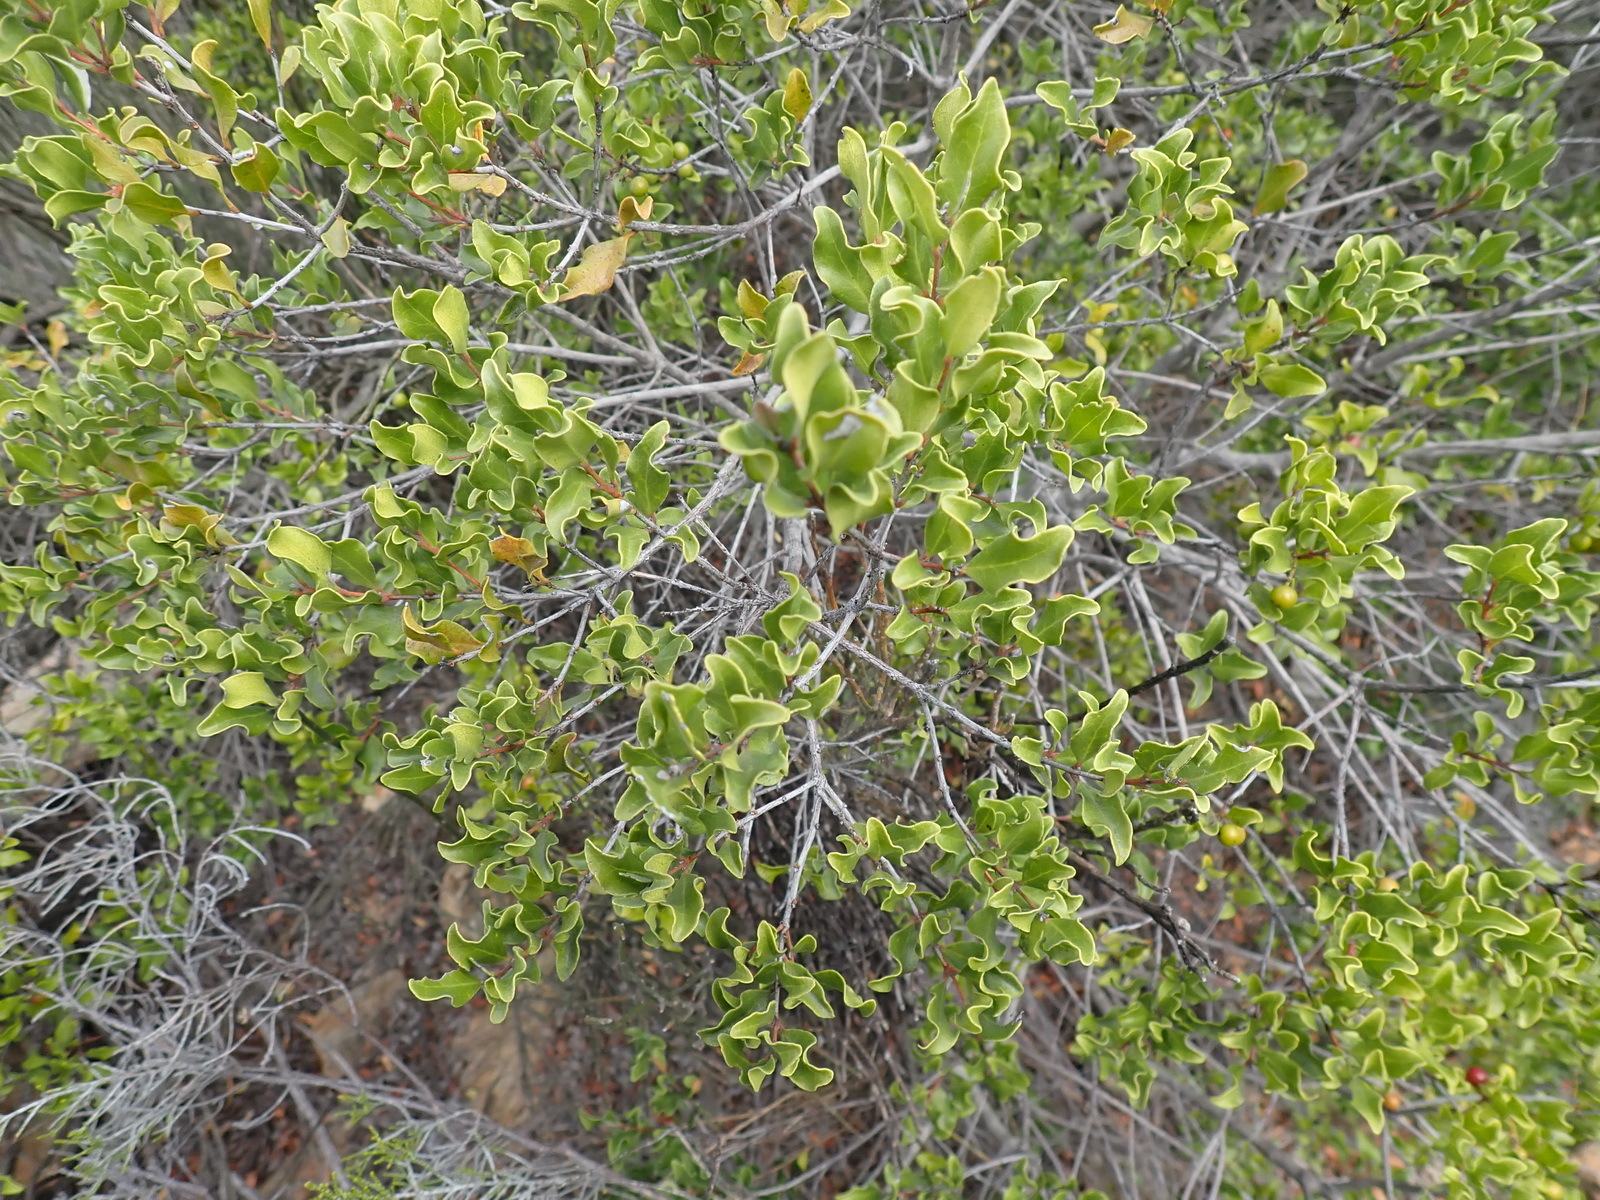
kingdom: Plantae
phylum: Tracheophyta
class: Magnoliopsida
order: Ericales
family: Ebenaceae
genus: Euclea
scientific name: Euclea undulata
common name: Small-leaved guarri
